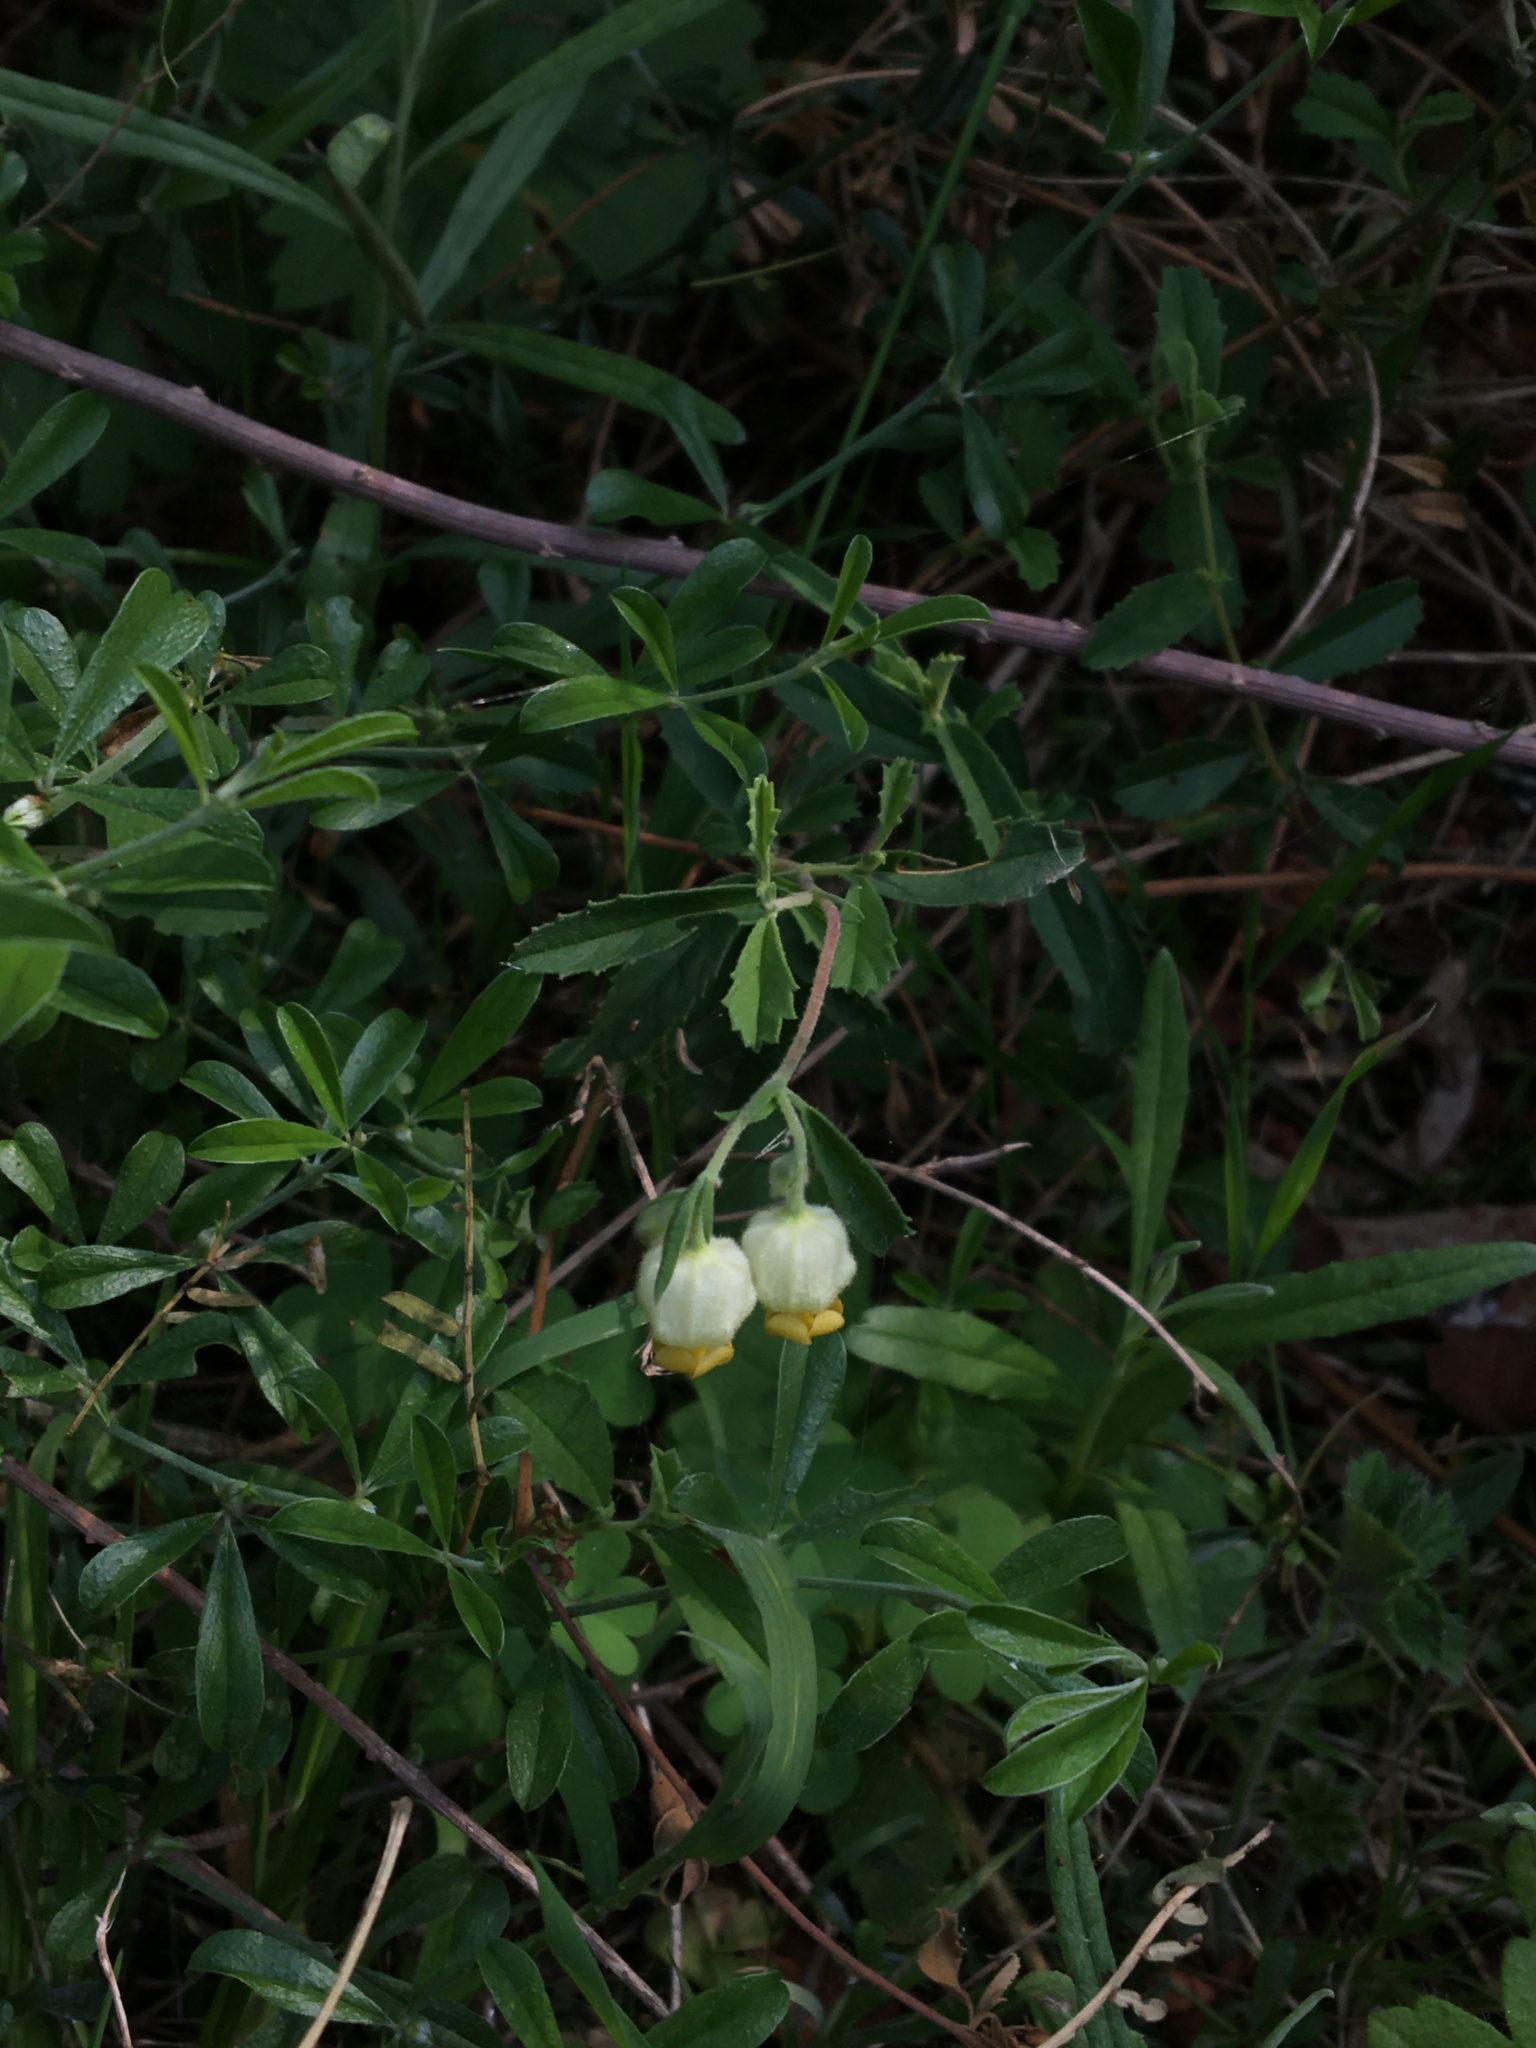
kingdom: Plantae
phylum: Tracheophyta
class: Magnoliopsida
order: Malvales
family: Malvaceae
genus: Hermannia
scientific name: Hermannia hyssopifolia
